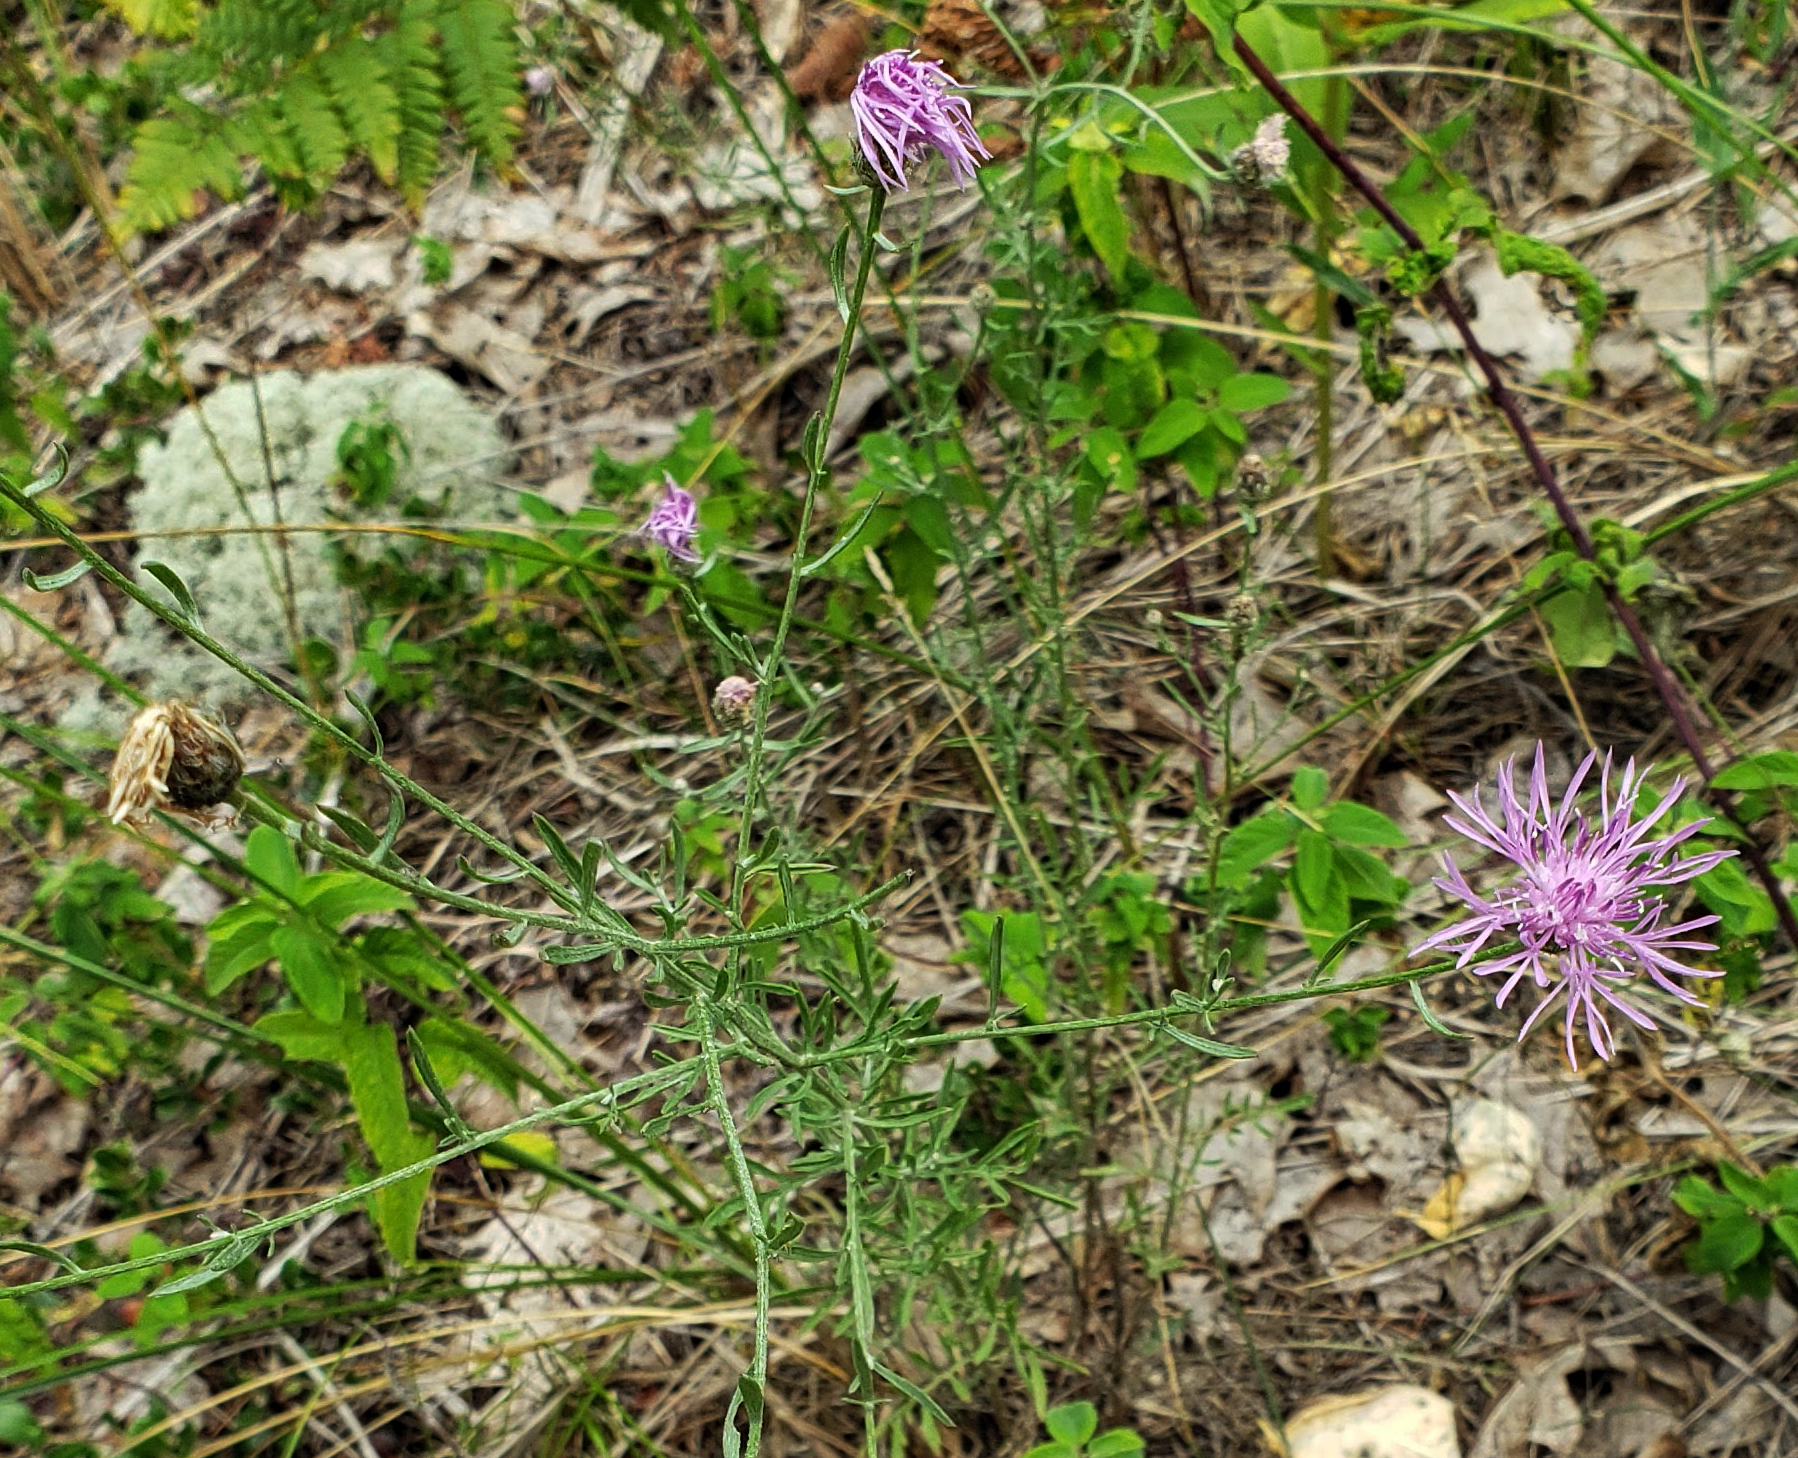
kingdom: Plantae
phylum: Tracheophyta
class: Magnoliopsida
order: Asterales
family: Asteraceae
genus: Centaurea
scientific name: Centaurea stoebe
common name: Spotted knapweed
